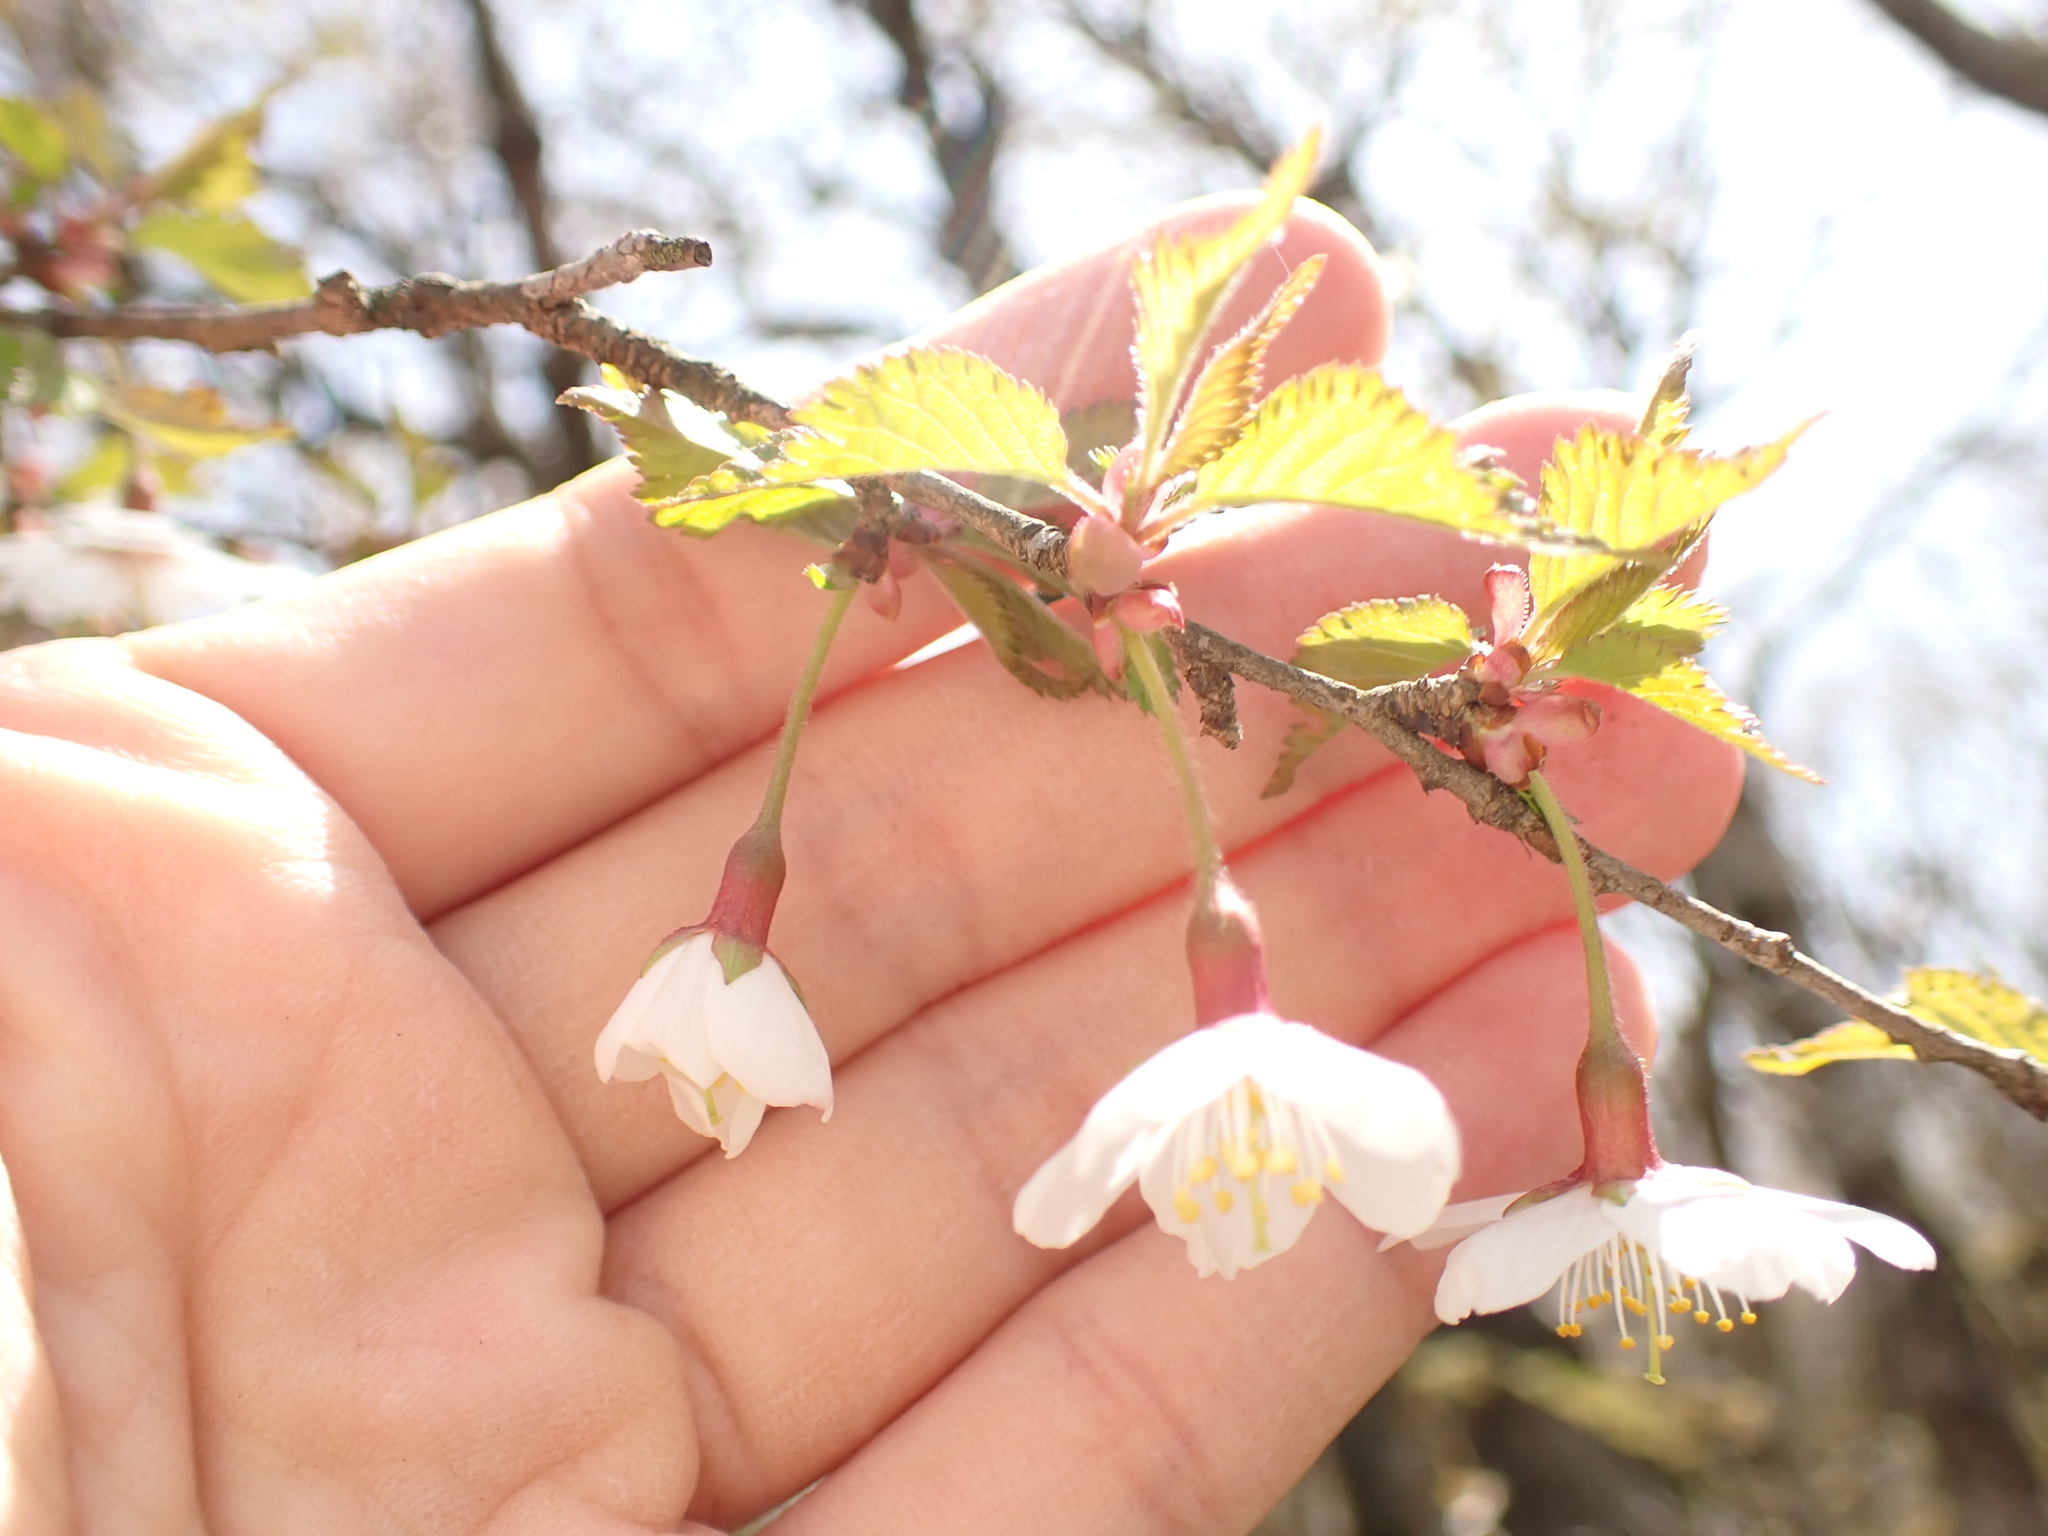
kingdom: Plantae
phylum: Tracheophyta
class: Magnoliopsida
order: Rosales
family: Rosaceae
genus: Prunus
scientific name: Prunus incisa
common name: Fuji cherry
